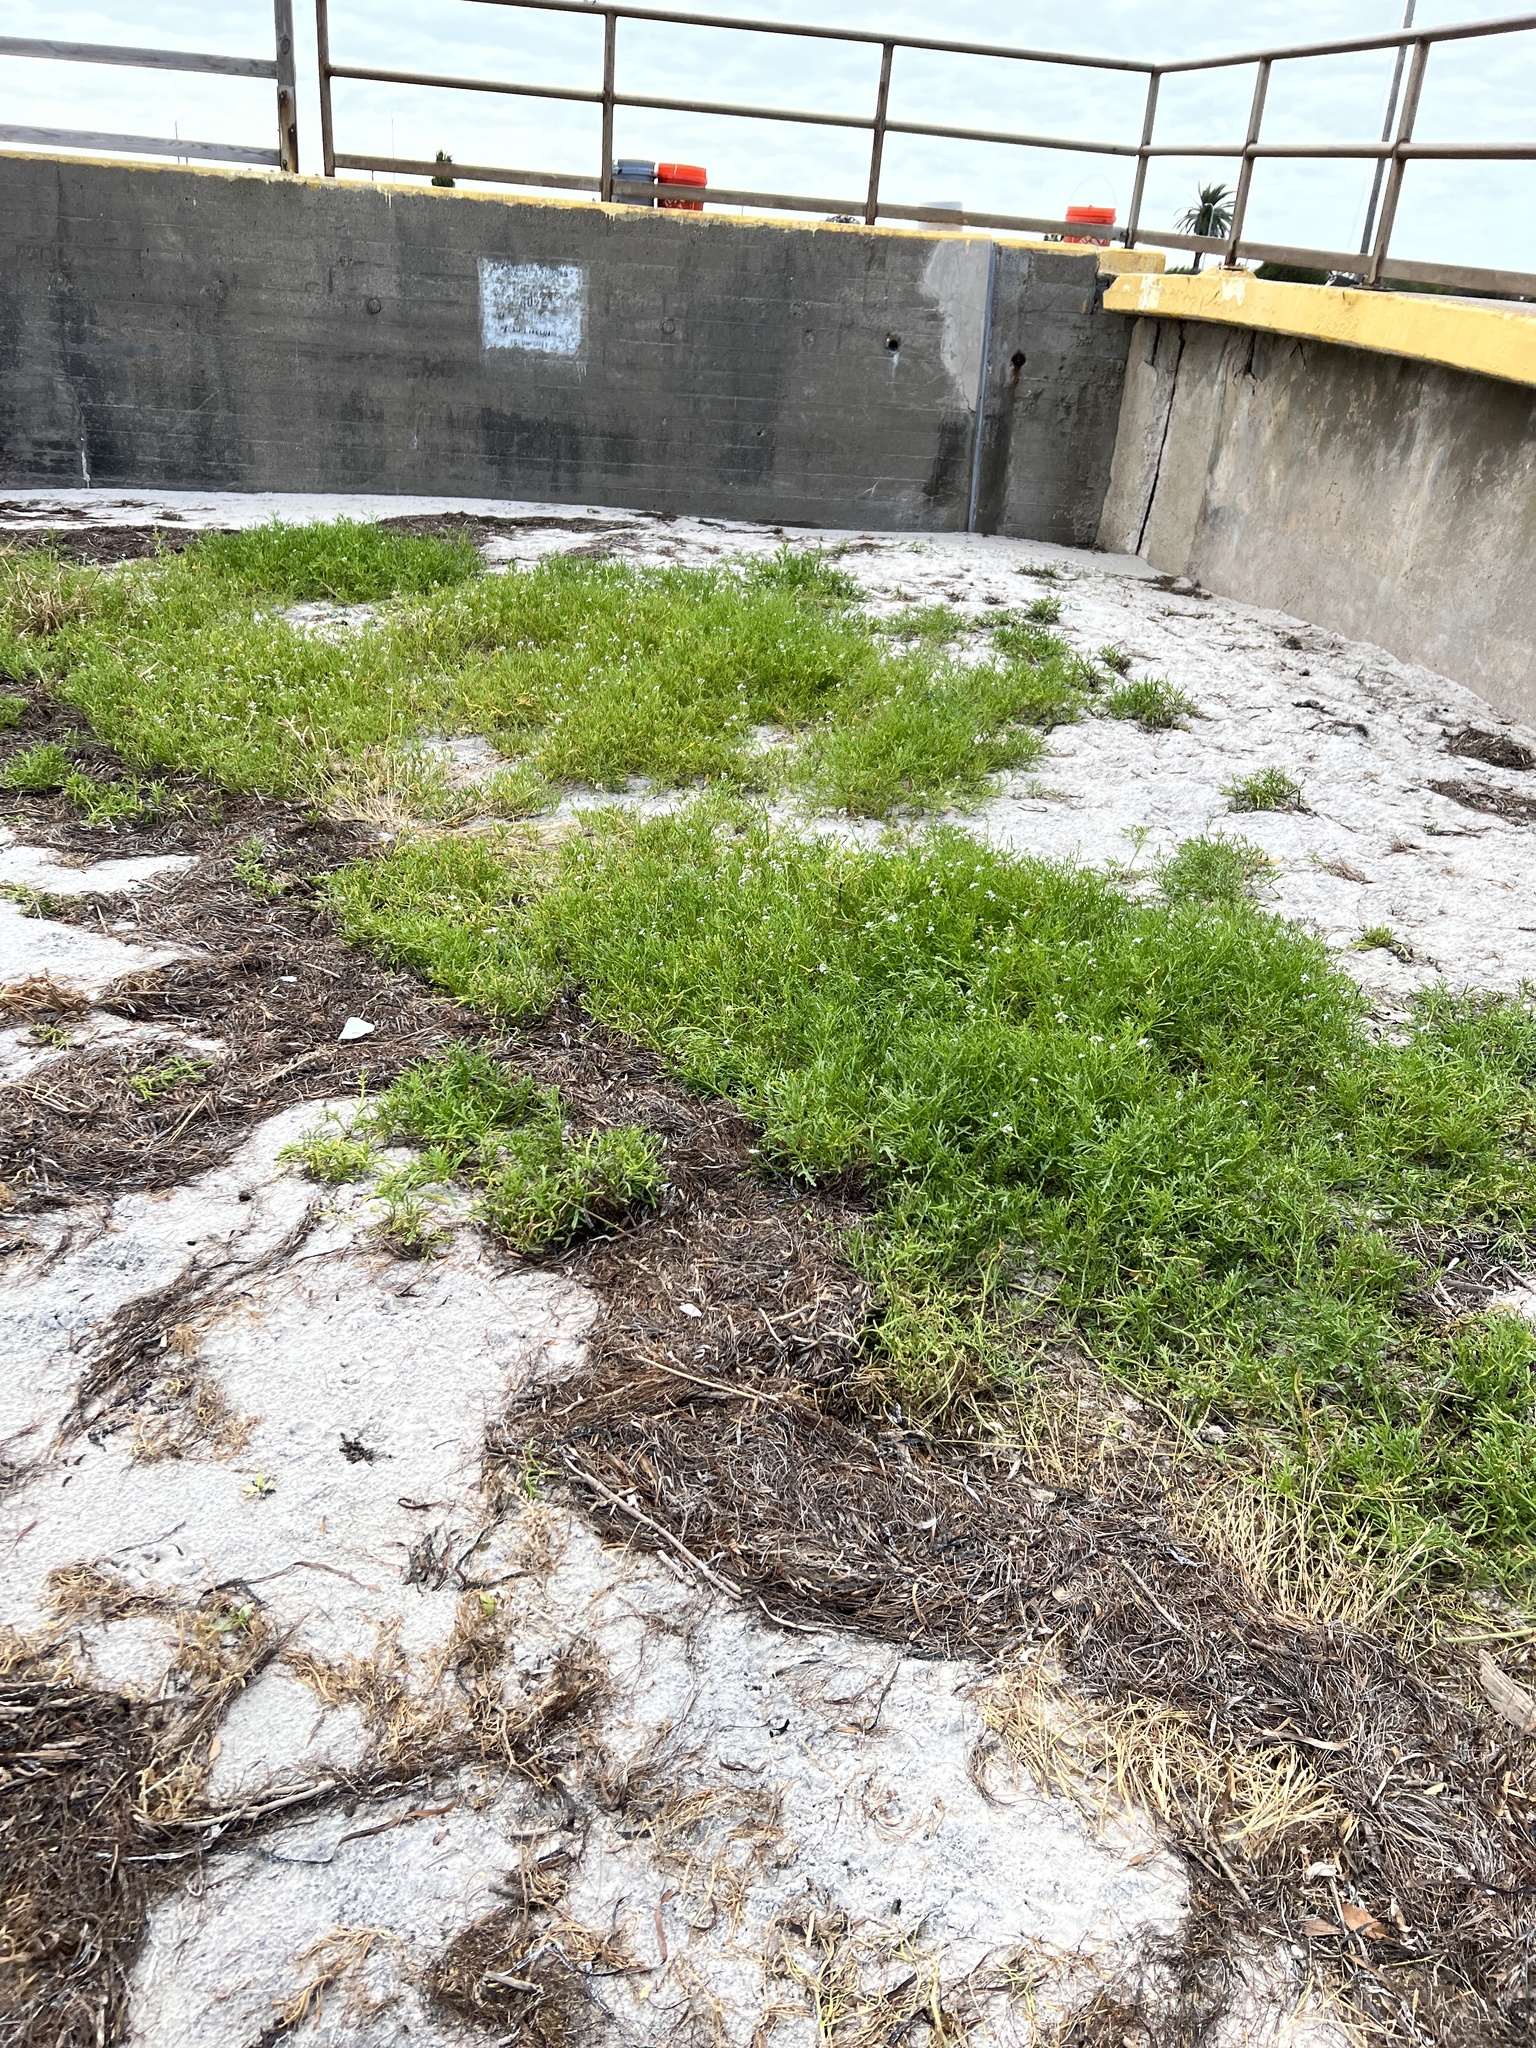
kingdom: Plantae
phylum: Tracheophyta
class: Magnoliopsida
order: Brassicales
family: Brassicaceae
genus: Cakile
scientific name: Cakile lanceolata
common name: Sea rocket
